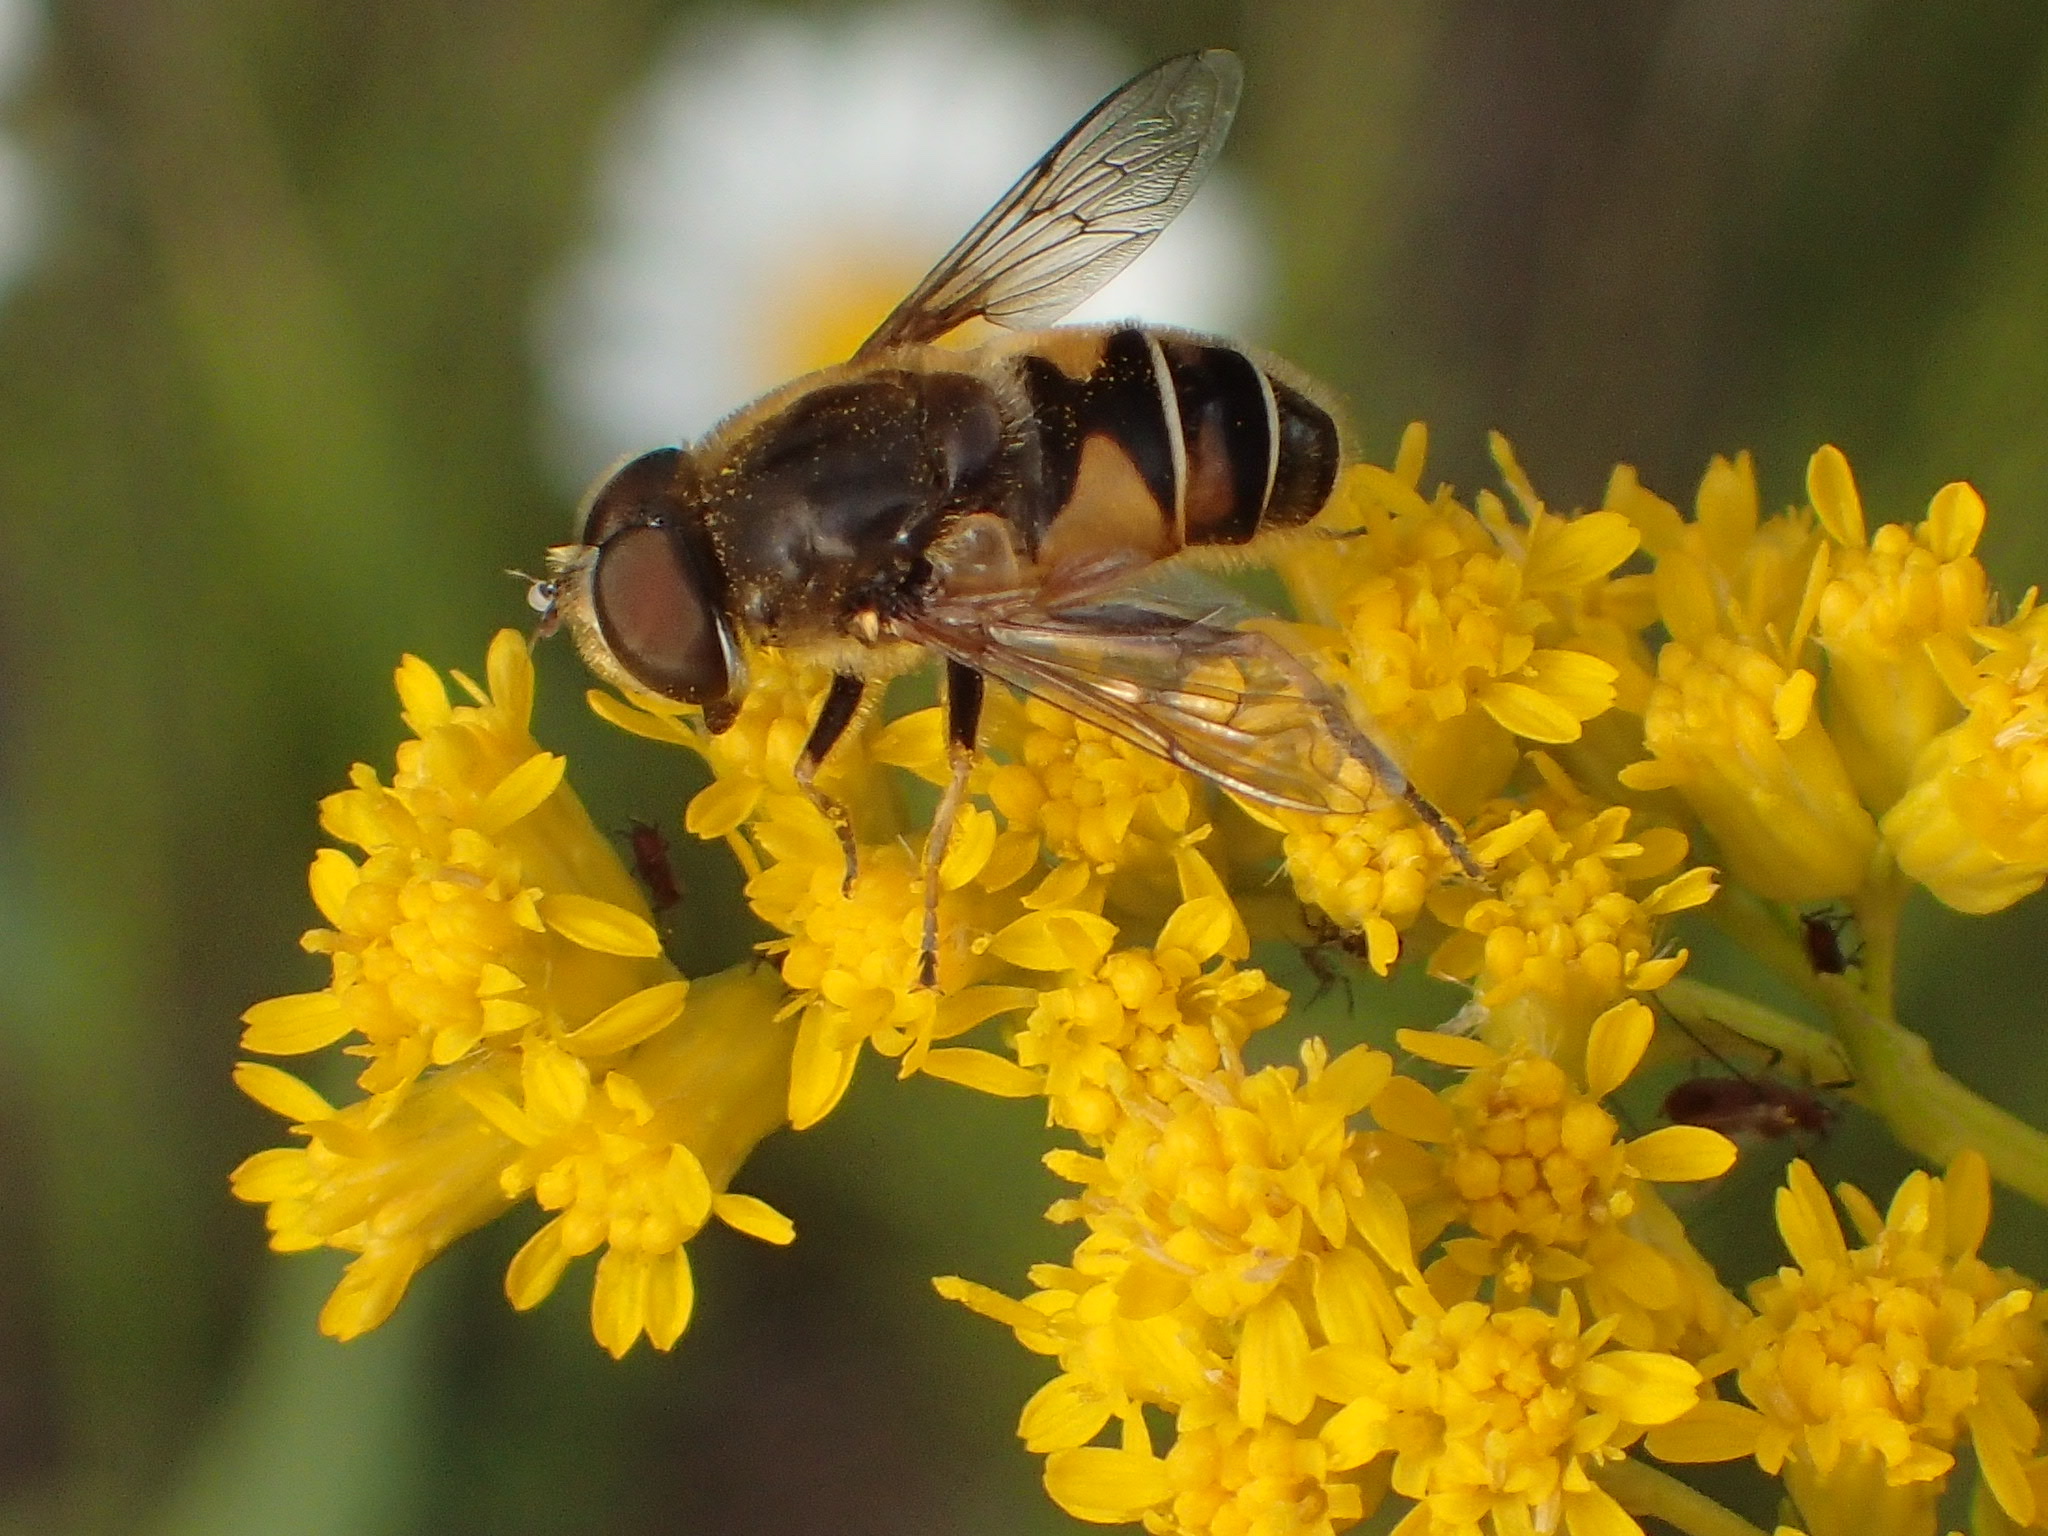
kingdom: Animalia
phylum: Arthropoda
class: Insecta
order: Diptera
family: Syrphidae
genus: Eristalis
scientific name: Eristalis nemorum
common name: Orange-spined drone fly
